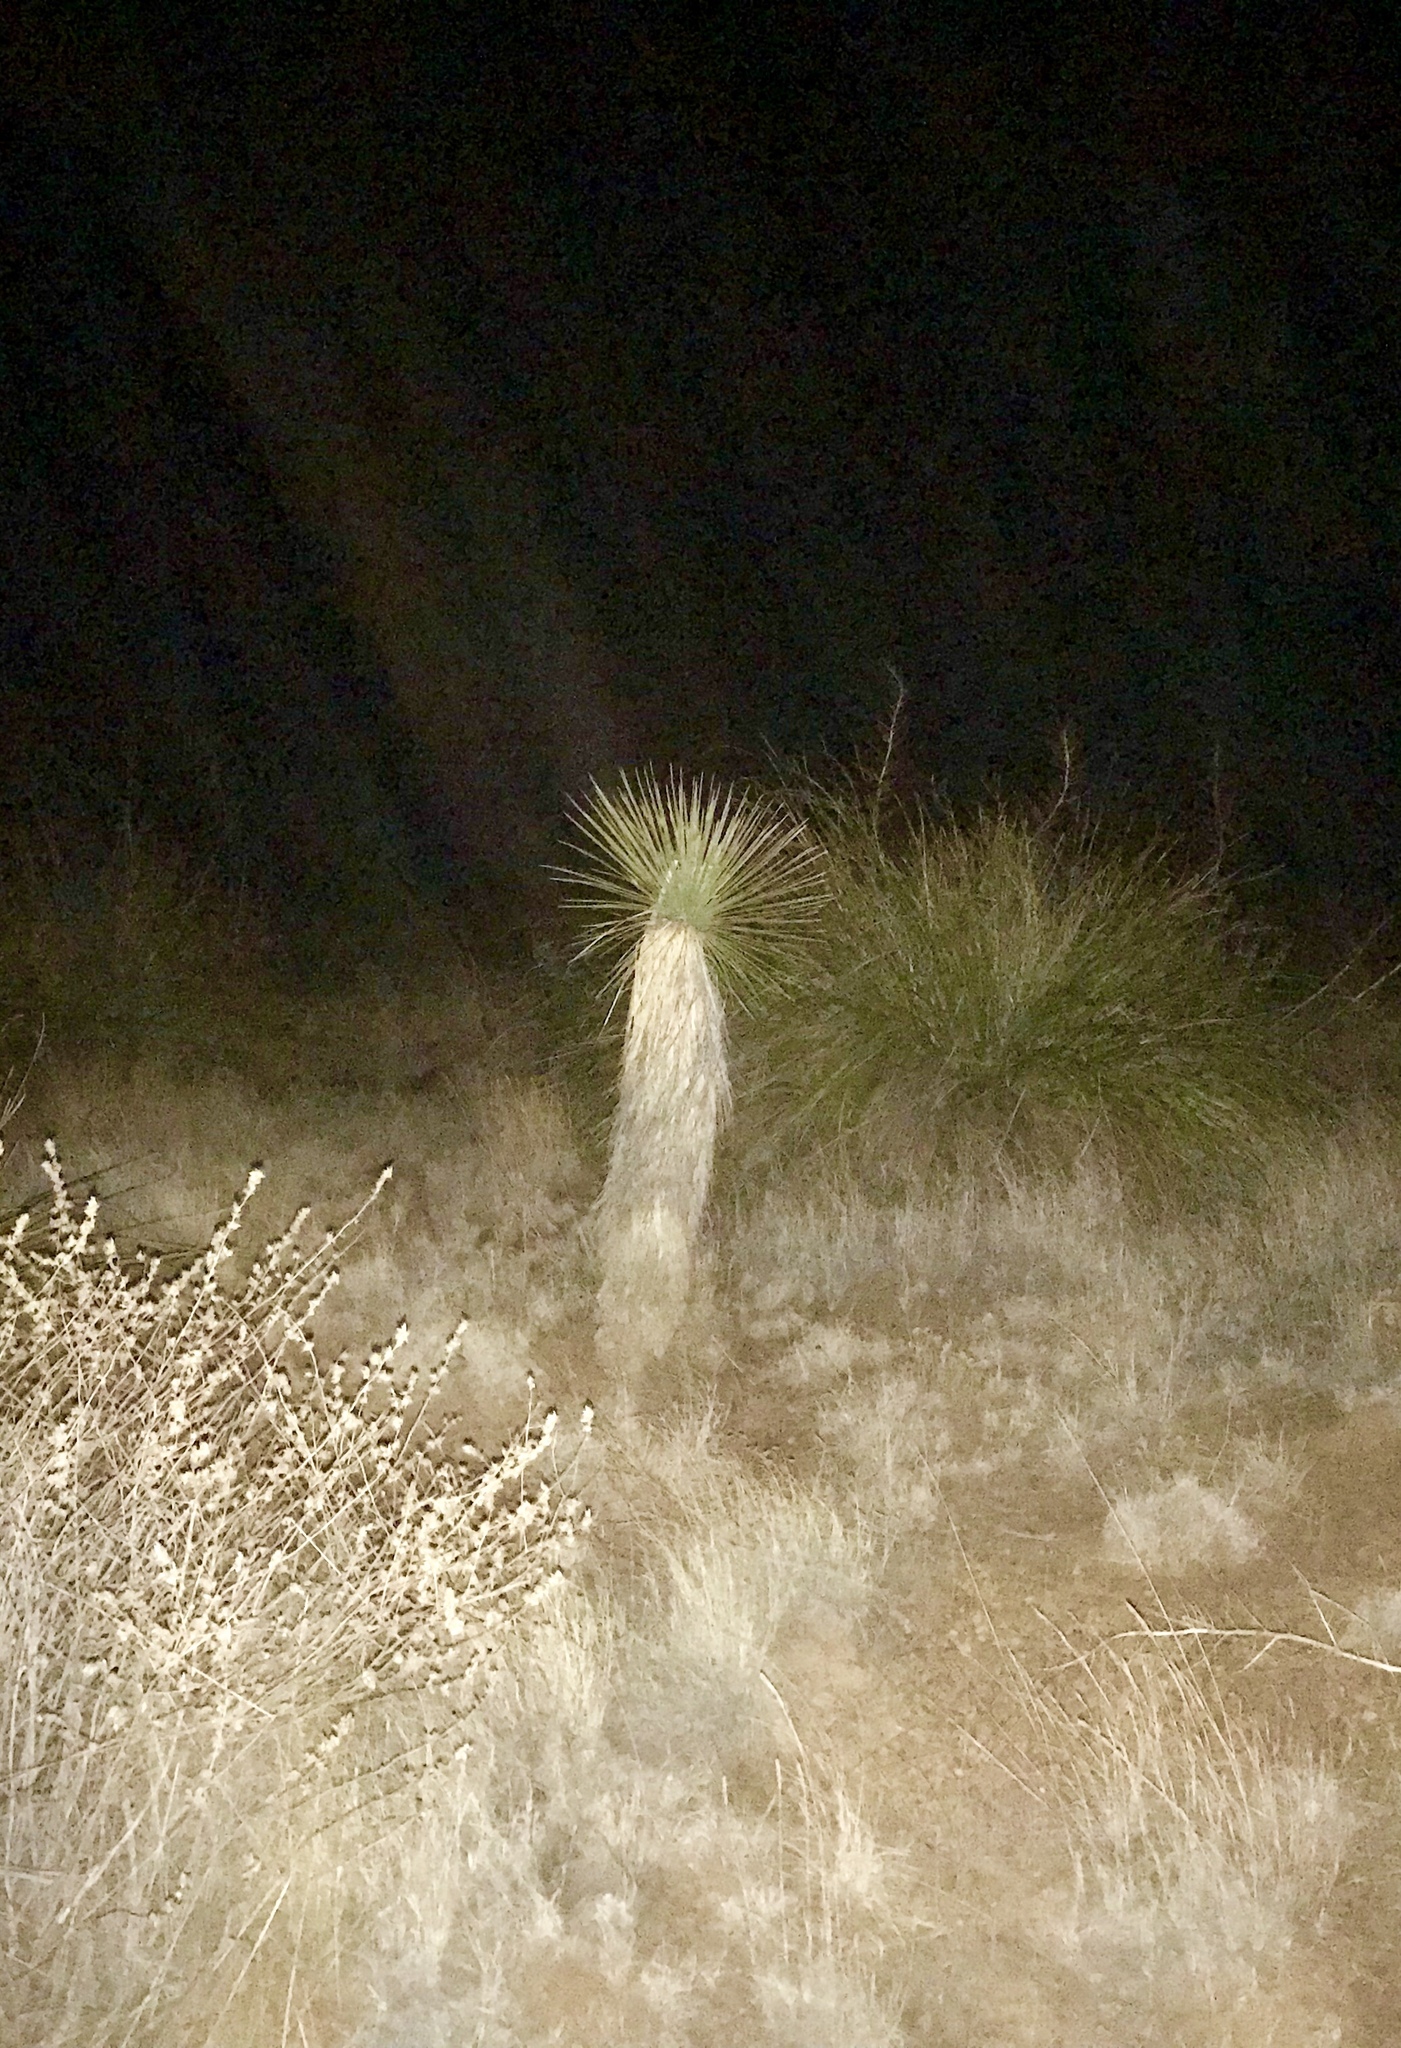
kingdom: Plantae
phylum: Tracheophyta
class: Liliopsida
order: Asparagales
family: Asparagaceae
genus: Yucca
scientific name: Yucca elata
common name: Palmella
